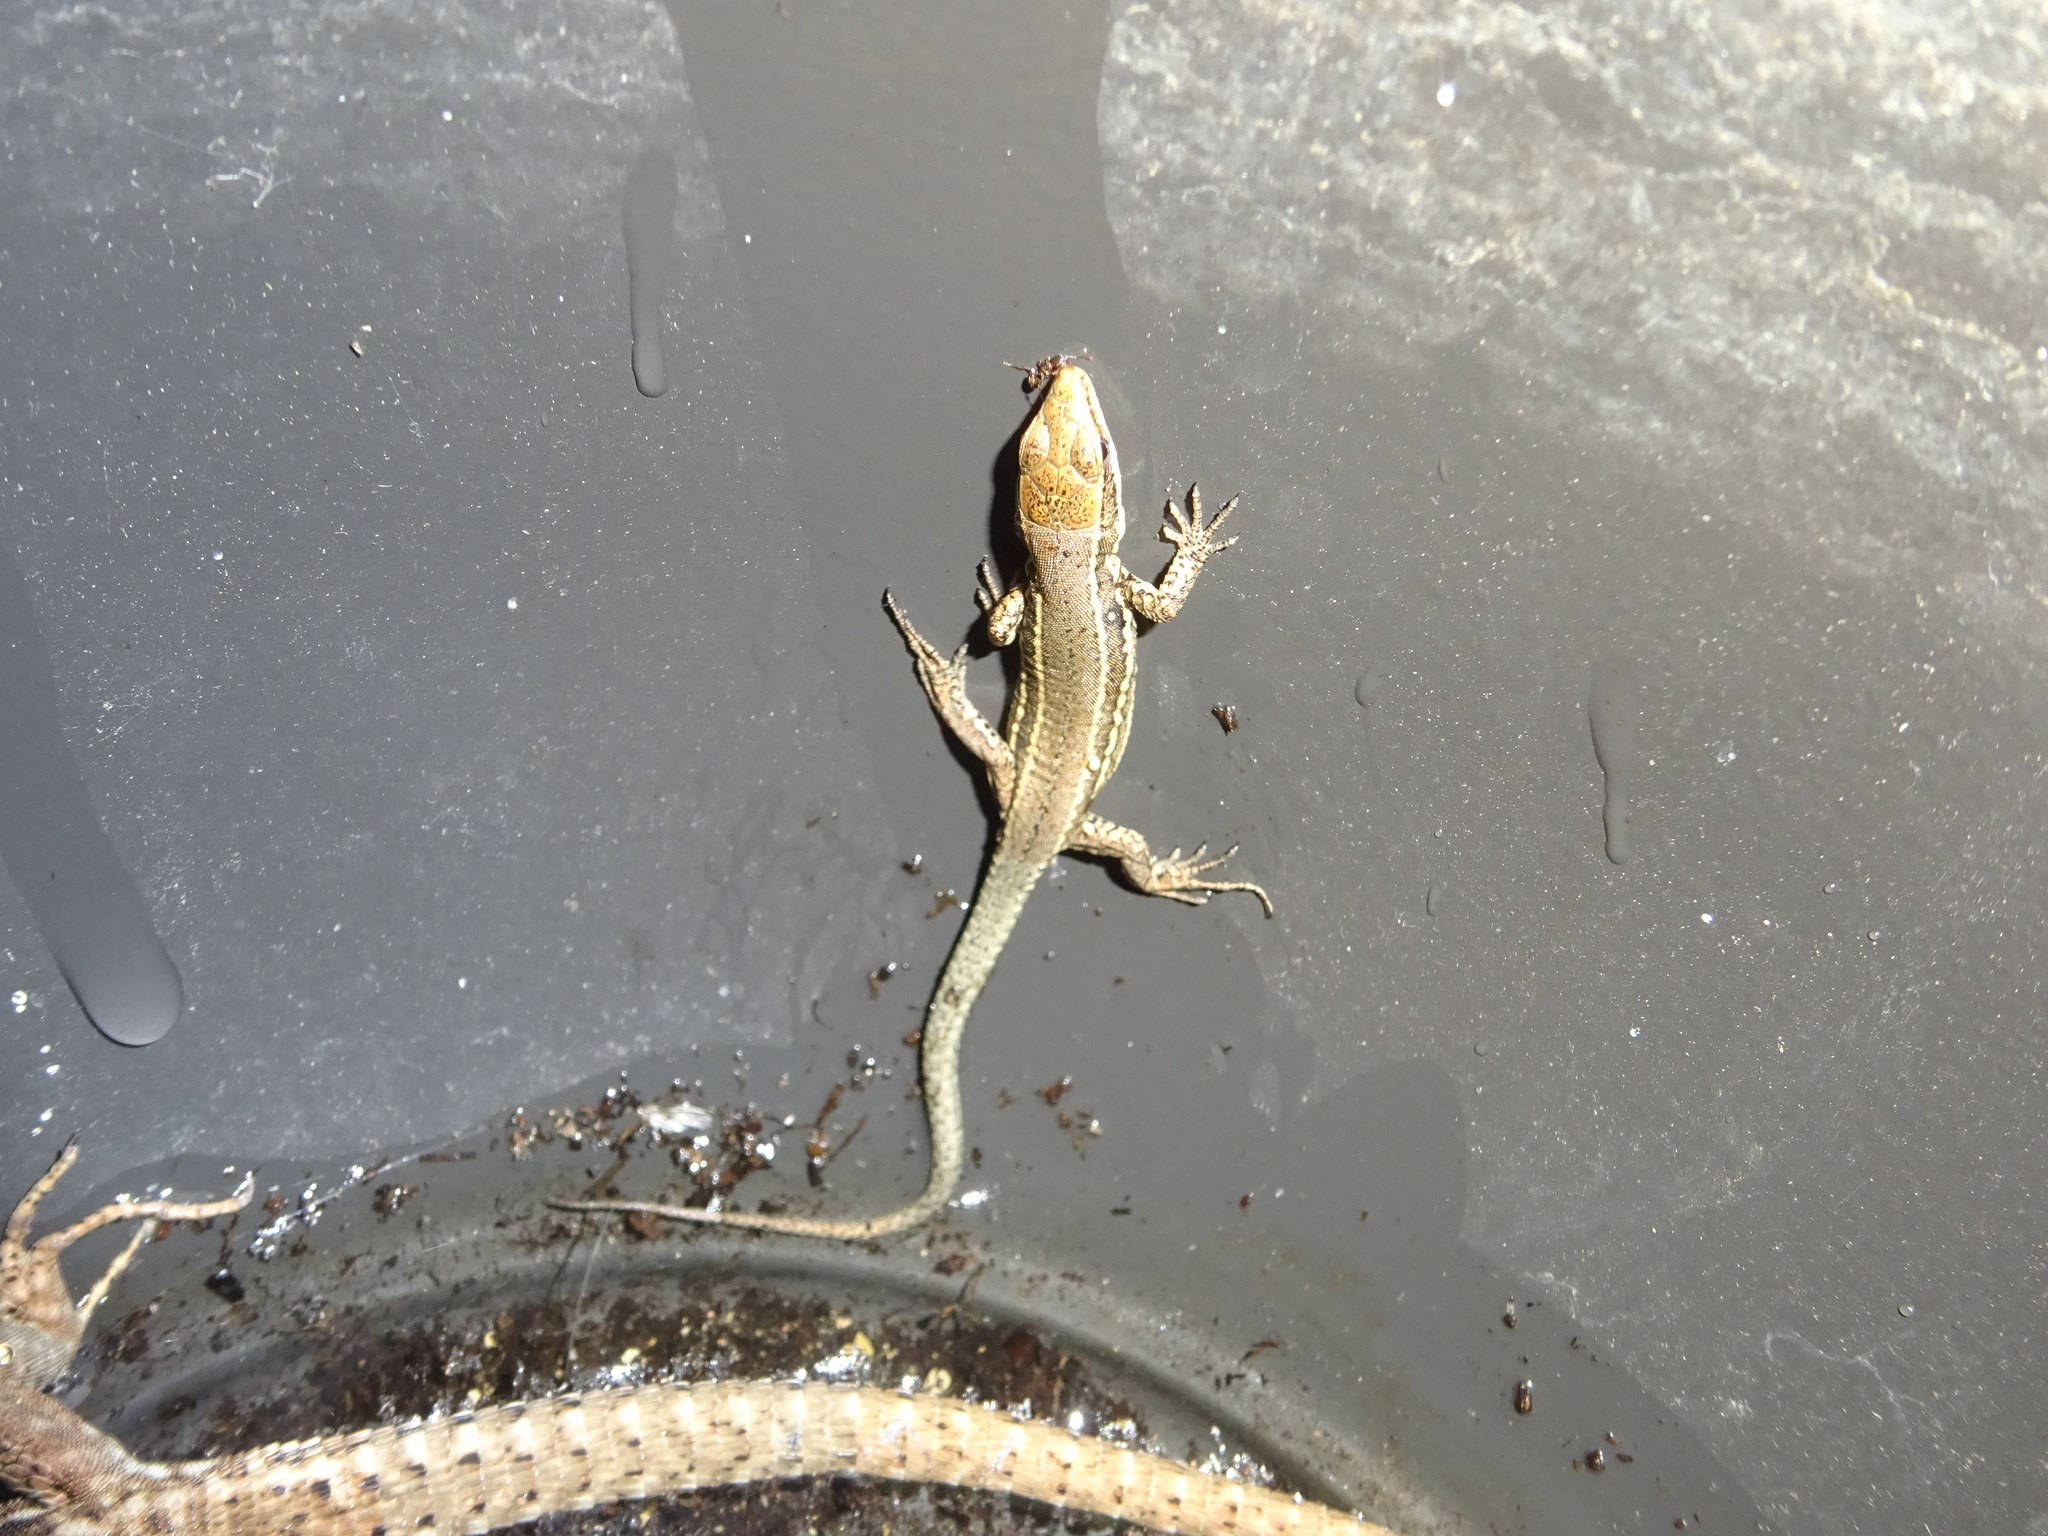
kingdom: Animalia
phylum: Chordata
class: Squamata
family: Lacertidae
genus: Podarcis
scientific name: Podarcis muralis
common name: Common wall lizard
